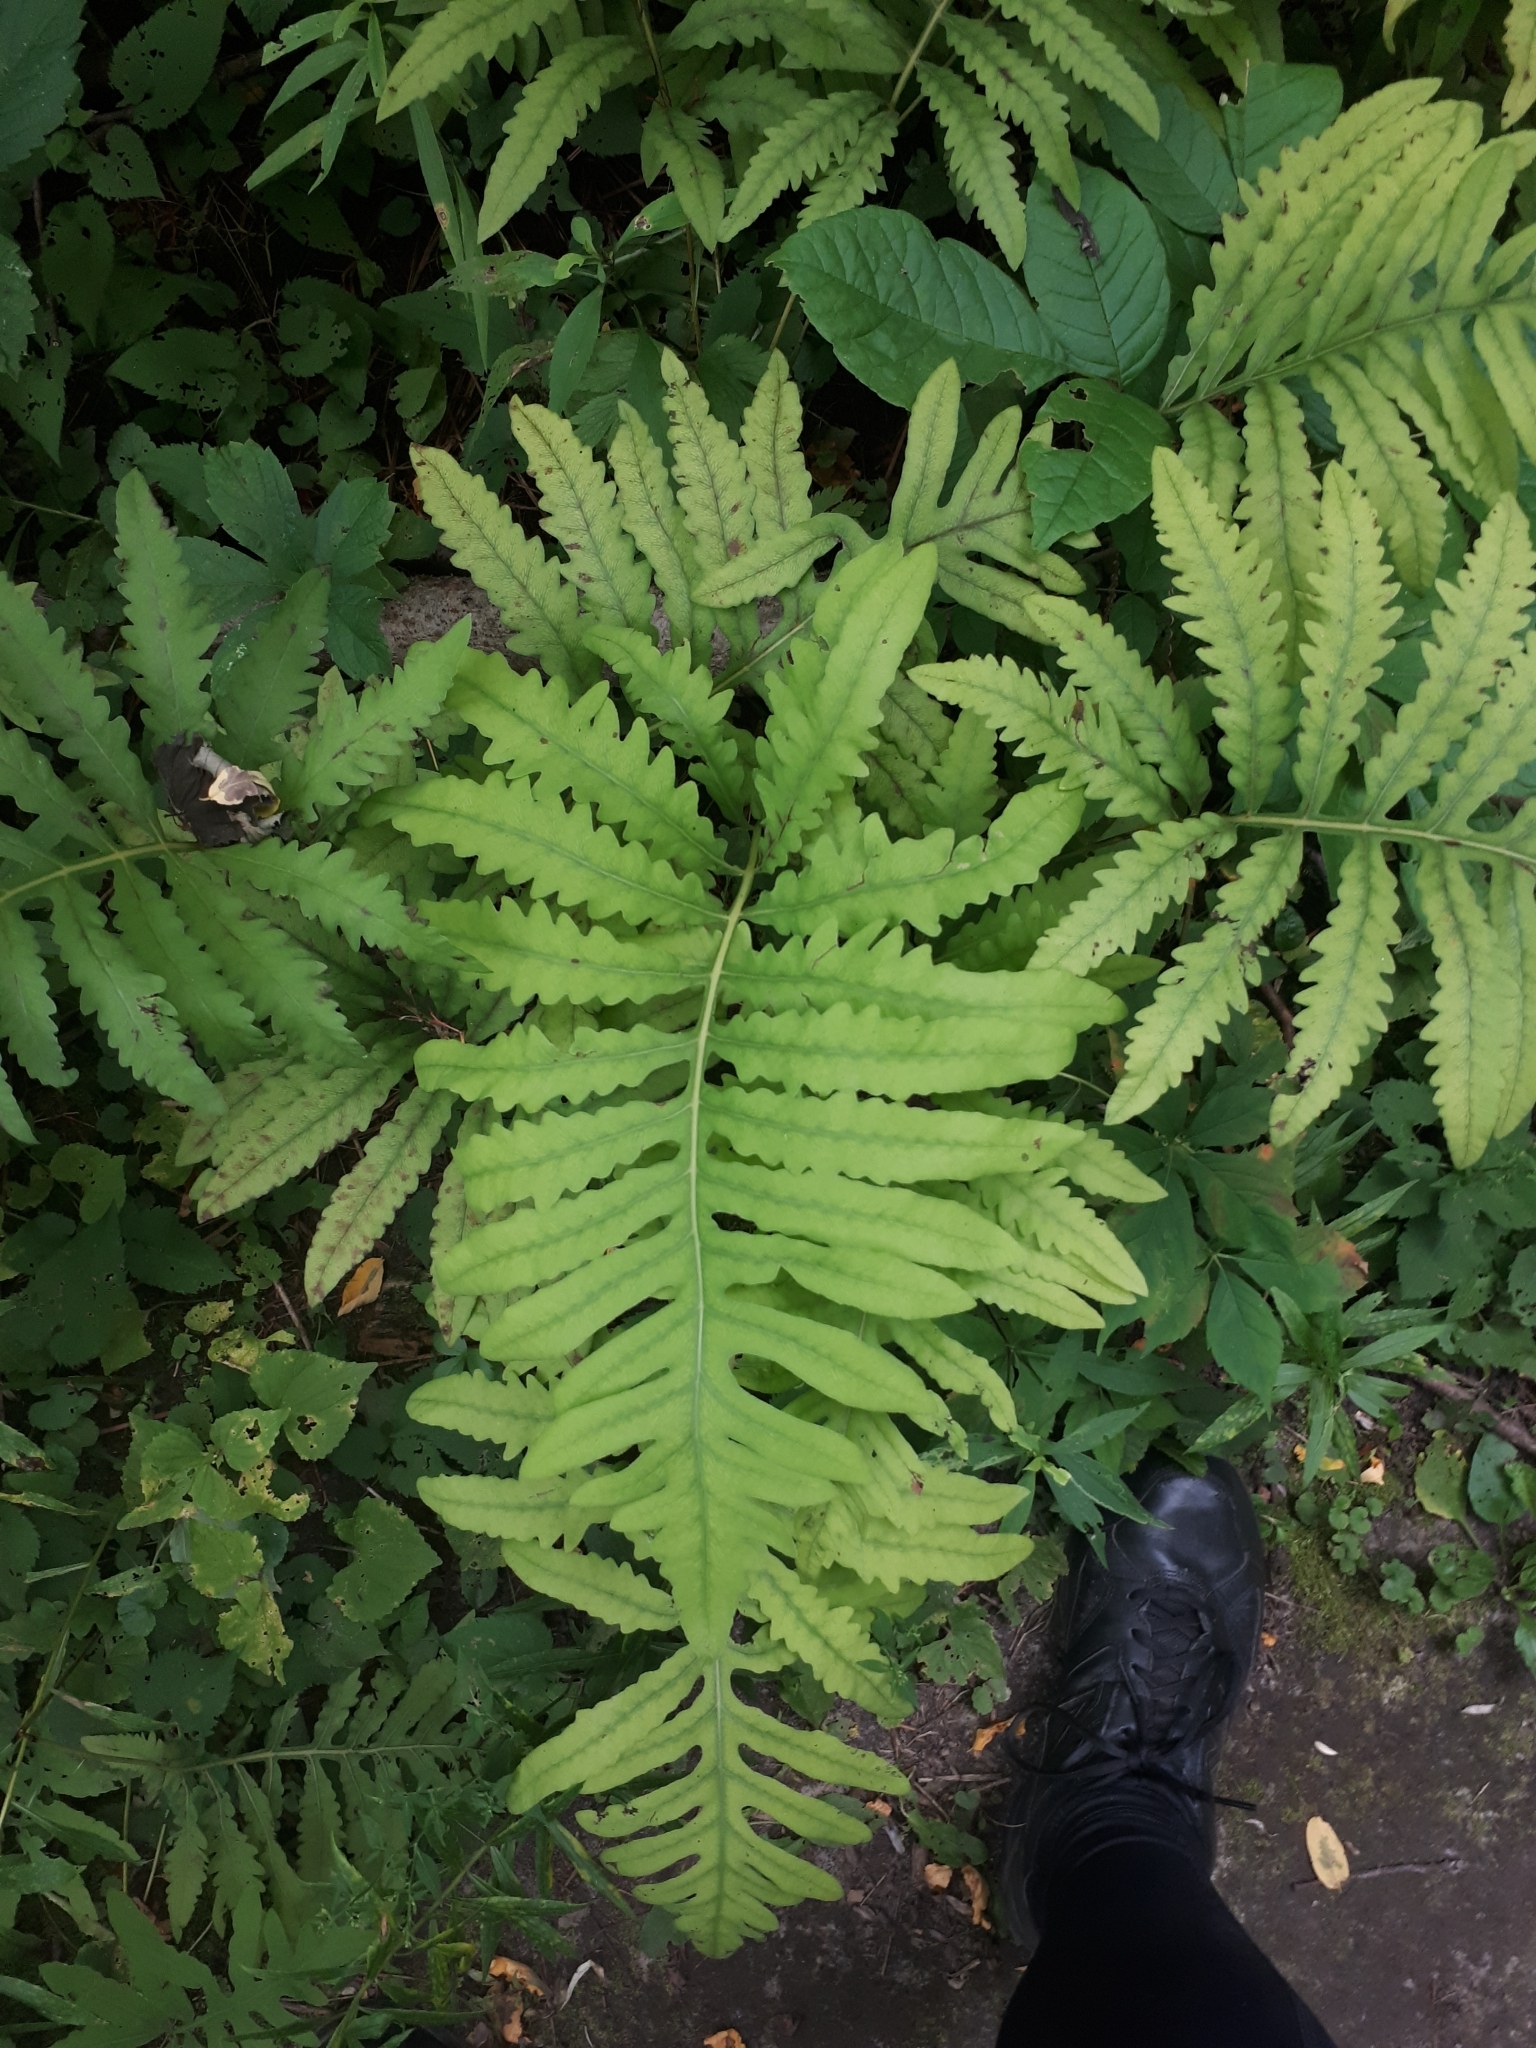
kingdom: Plantae
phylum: Tracheophyta
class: Polypodiopsida
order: Polypodiales
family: Onocleaceae
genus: Onoclea
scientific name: Onoclea sensibilis
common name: Sensitive fern
